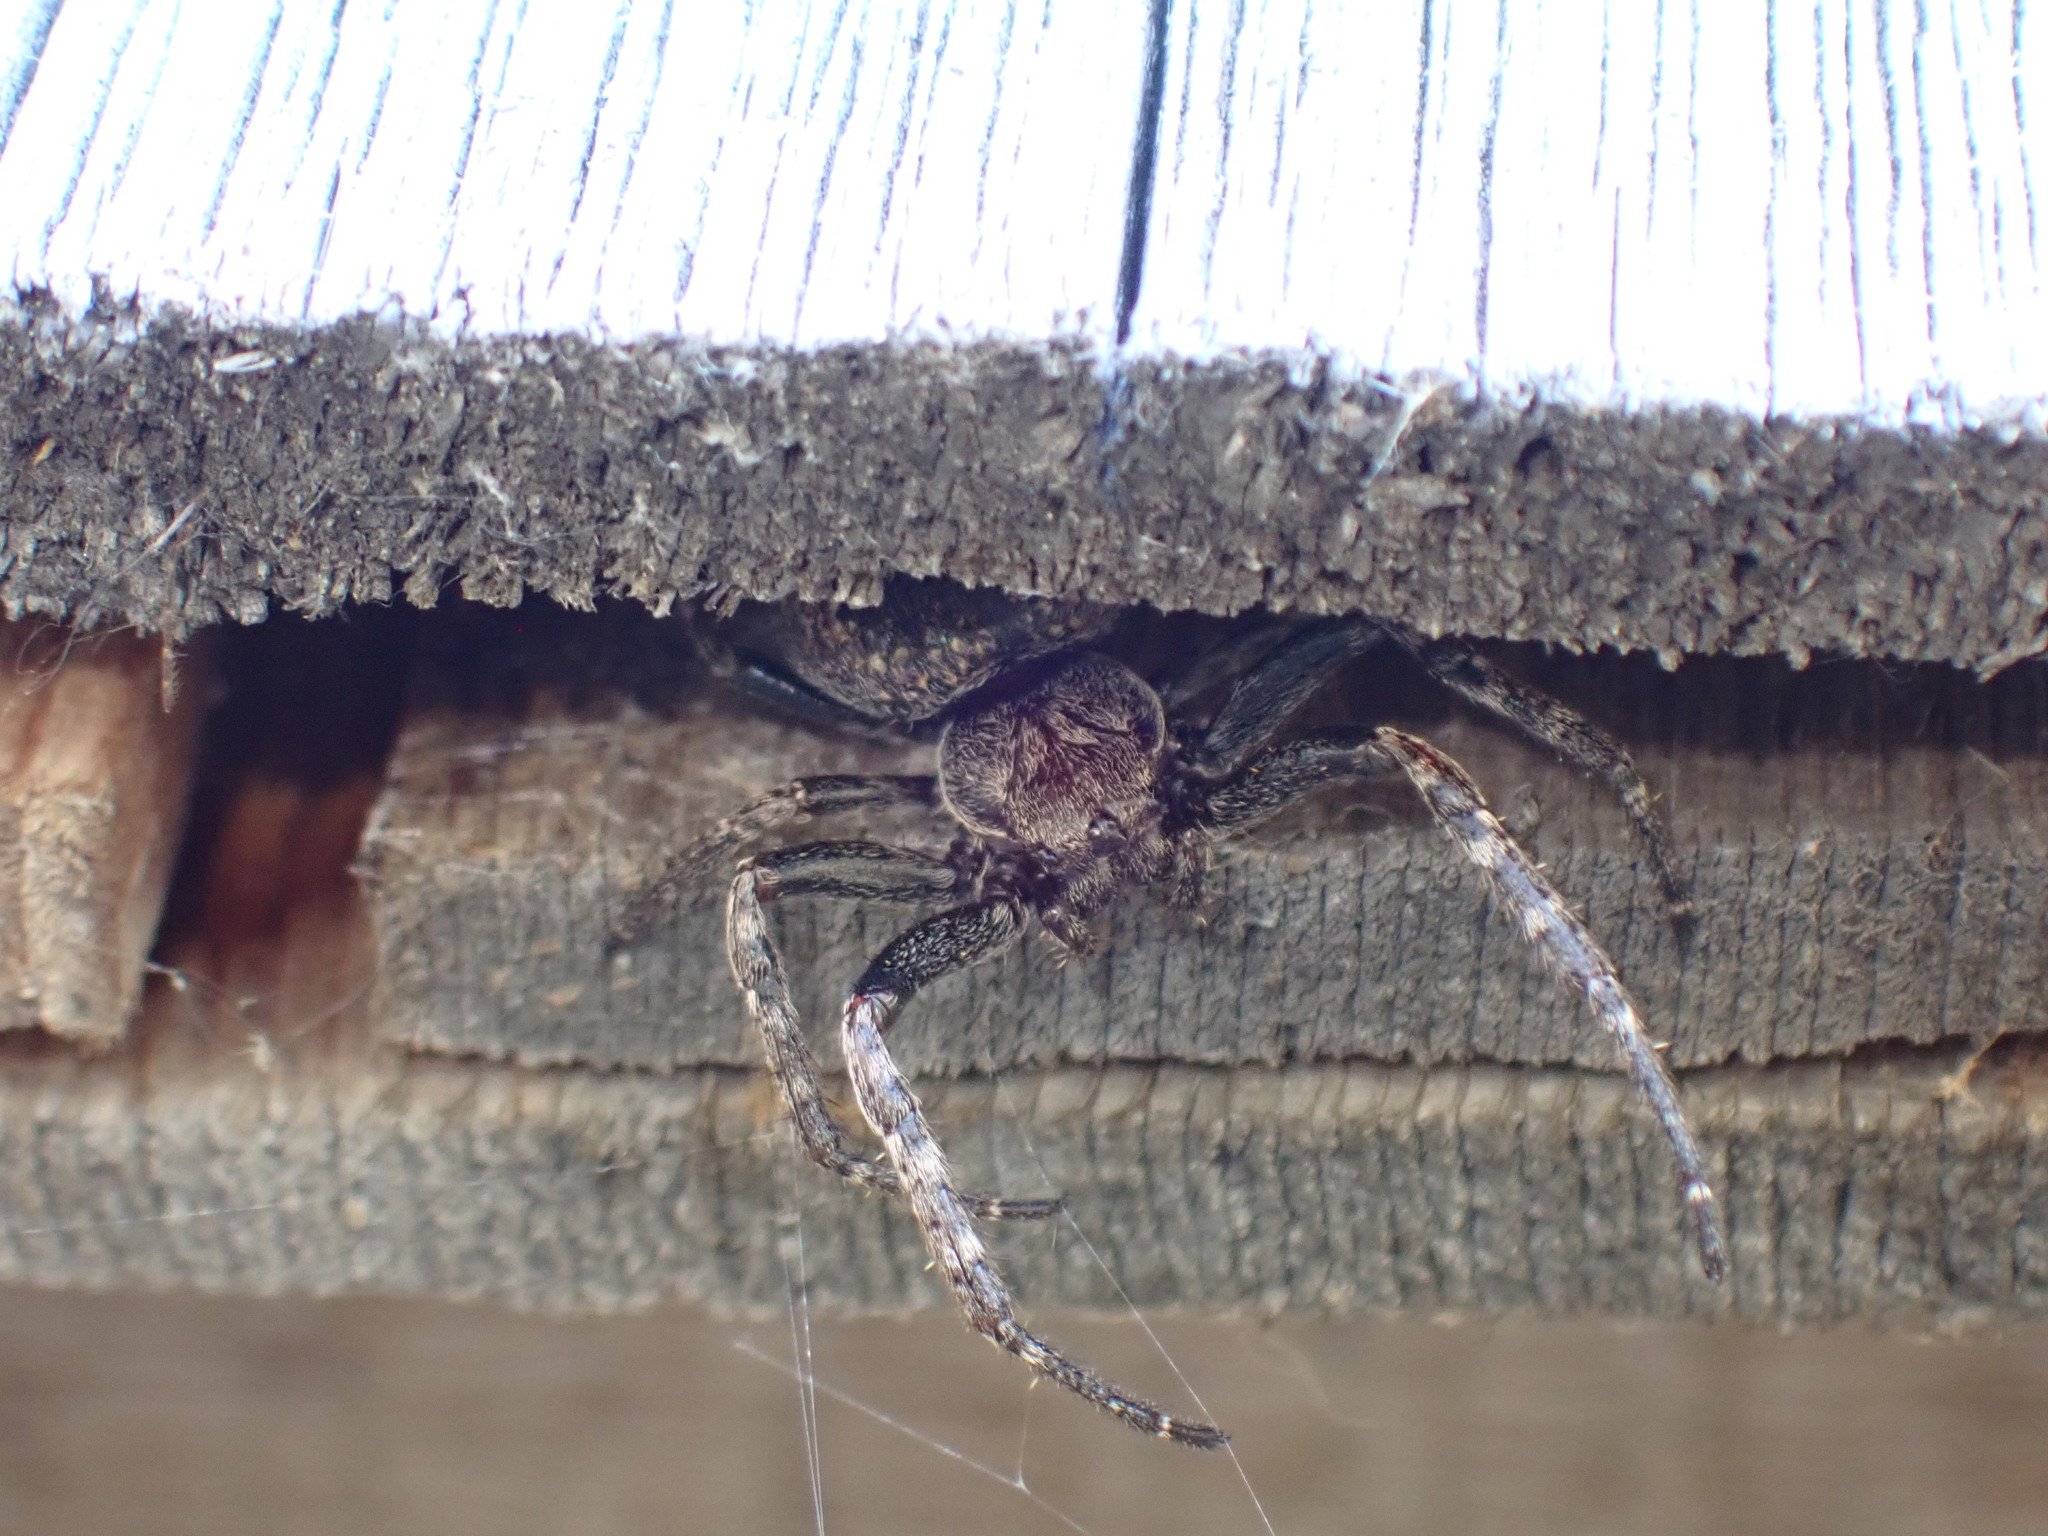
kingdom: Animalia
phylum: Arthropoda
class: Arachnida
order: Araneae
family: Araneidae
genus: Nuctenea
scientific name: Nuctenea umbratica
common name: Toad spider
